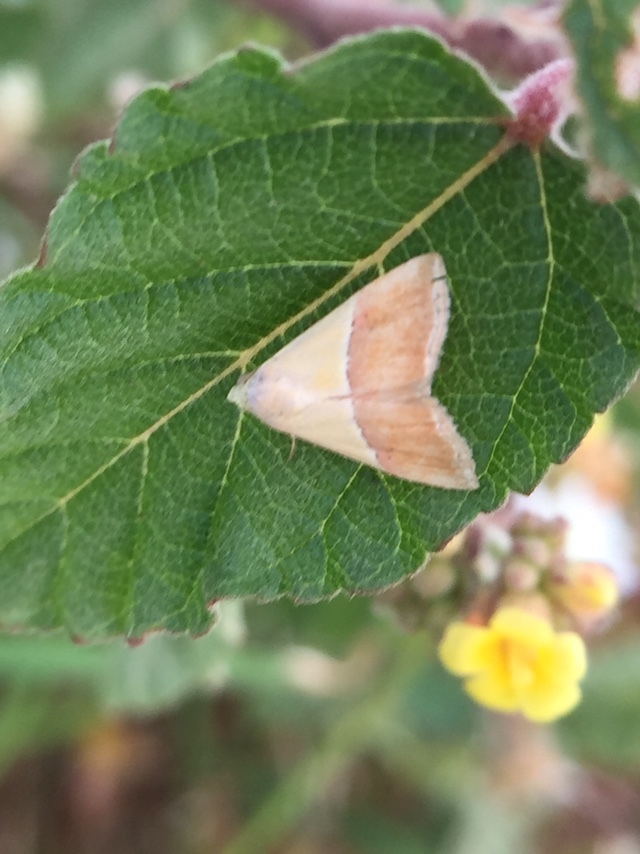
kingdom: Animalia
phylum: Arthropoda
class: Insecta
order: Lepidoptera
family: Noctuidae
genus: Eublemma
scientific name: Eublemma accedens
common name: Moth
